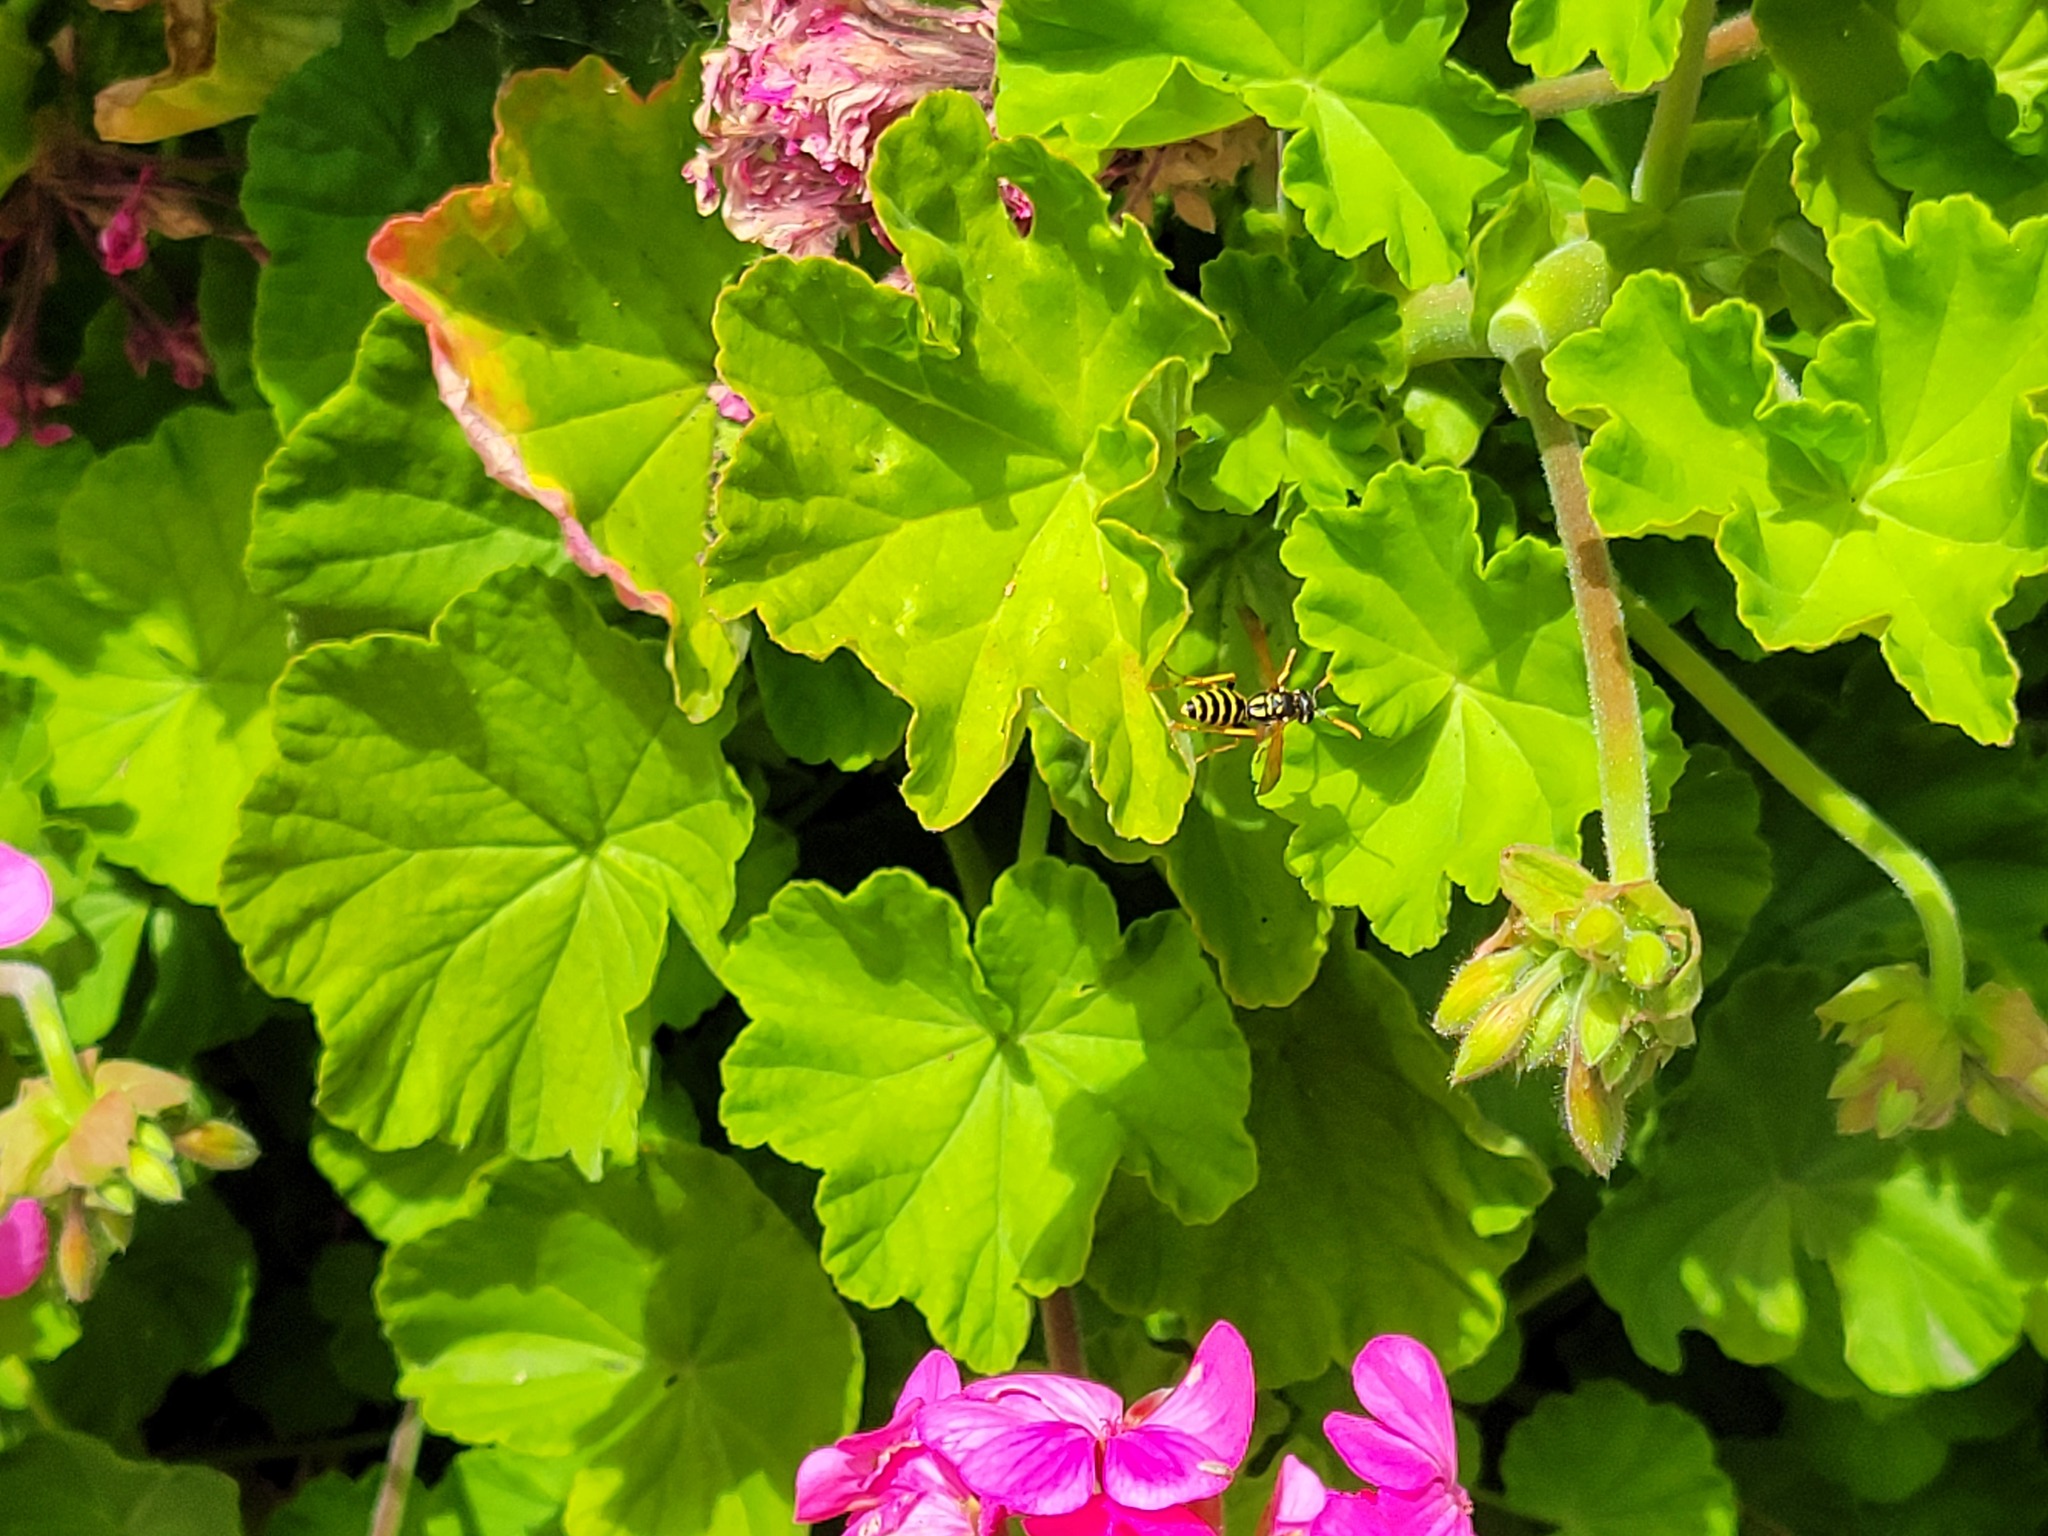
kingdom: Animalia
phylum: Arthropoda
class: Insecta
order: Hymenoptera
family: Eumenidae
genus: Polistes
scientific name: Polistes dominula
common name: Paper wasp
